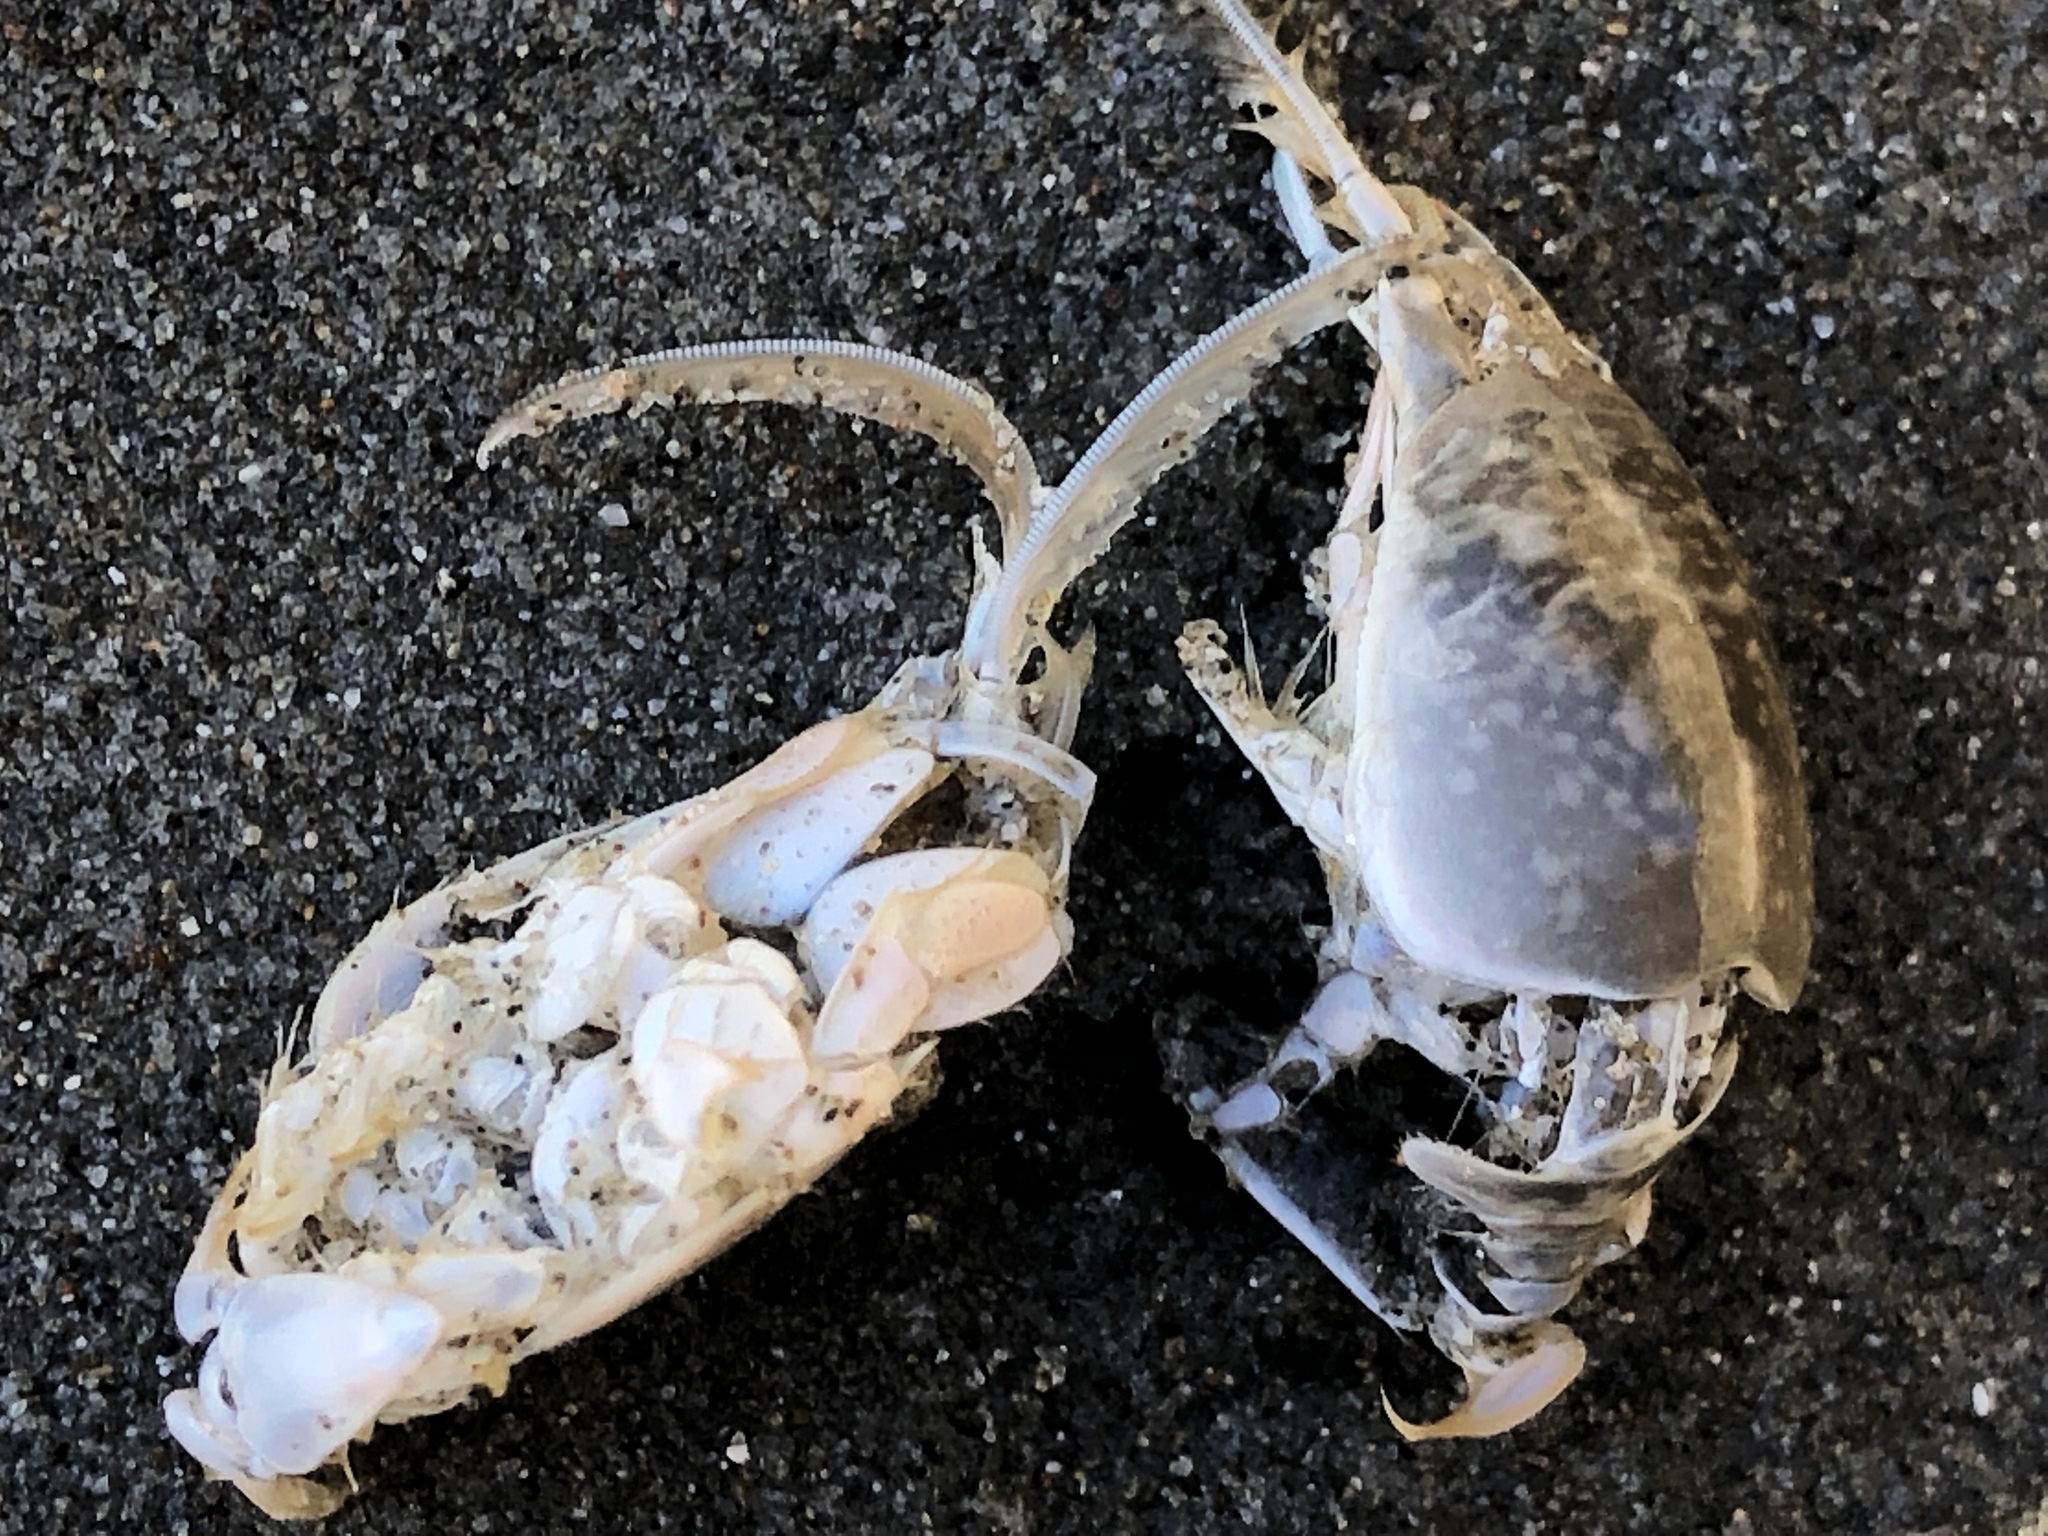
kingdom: Animalia
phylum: Arthropoda
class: Malacostraca
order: Decapoda
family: Hippidae
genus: Emerita
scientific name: Emerita analoga
